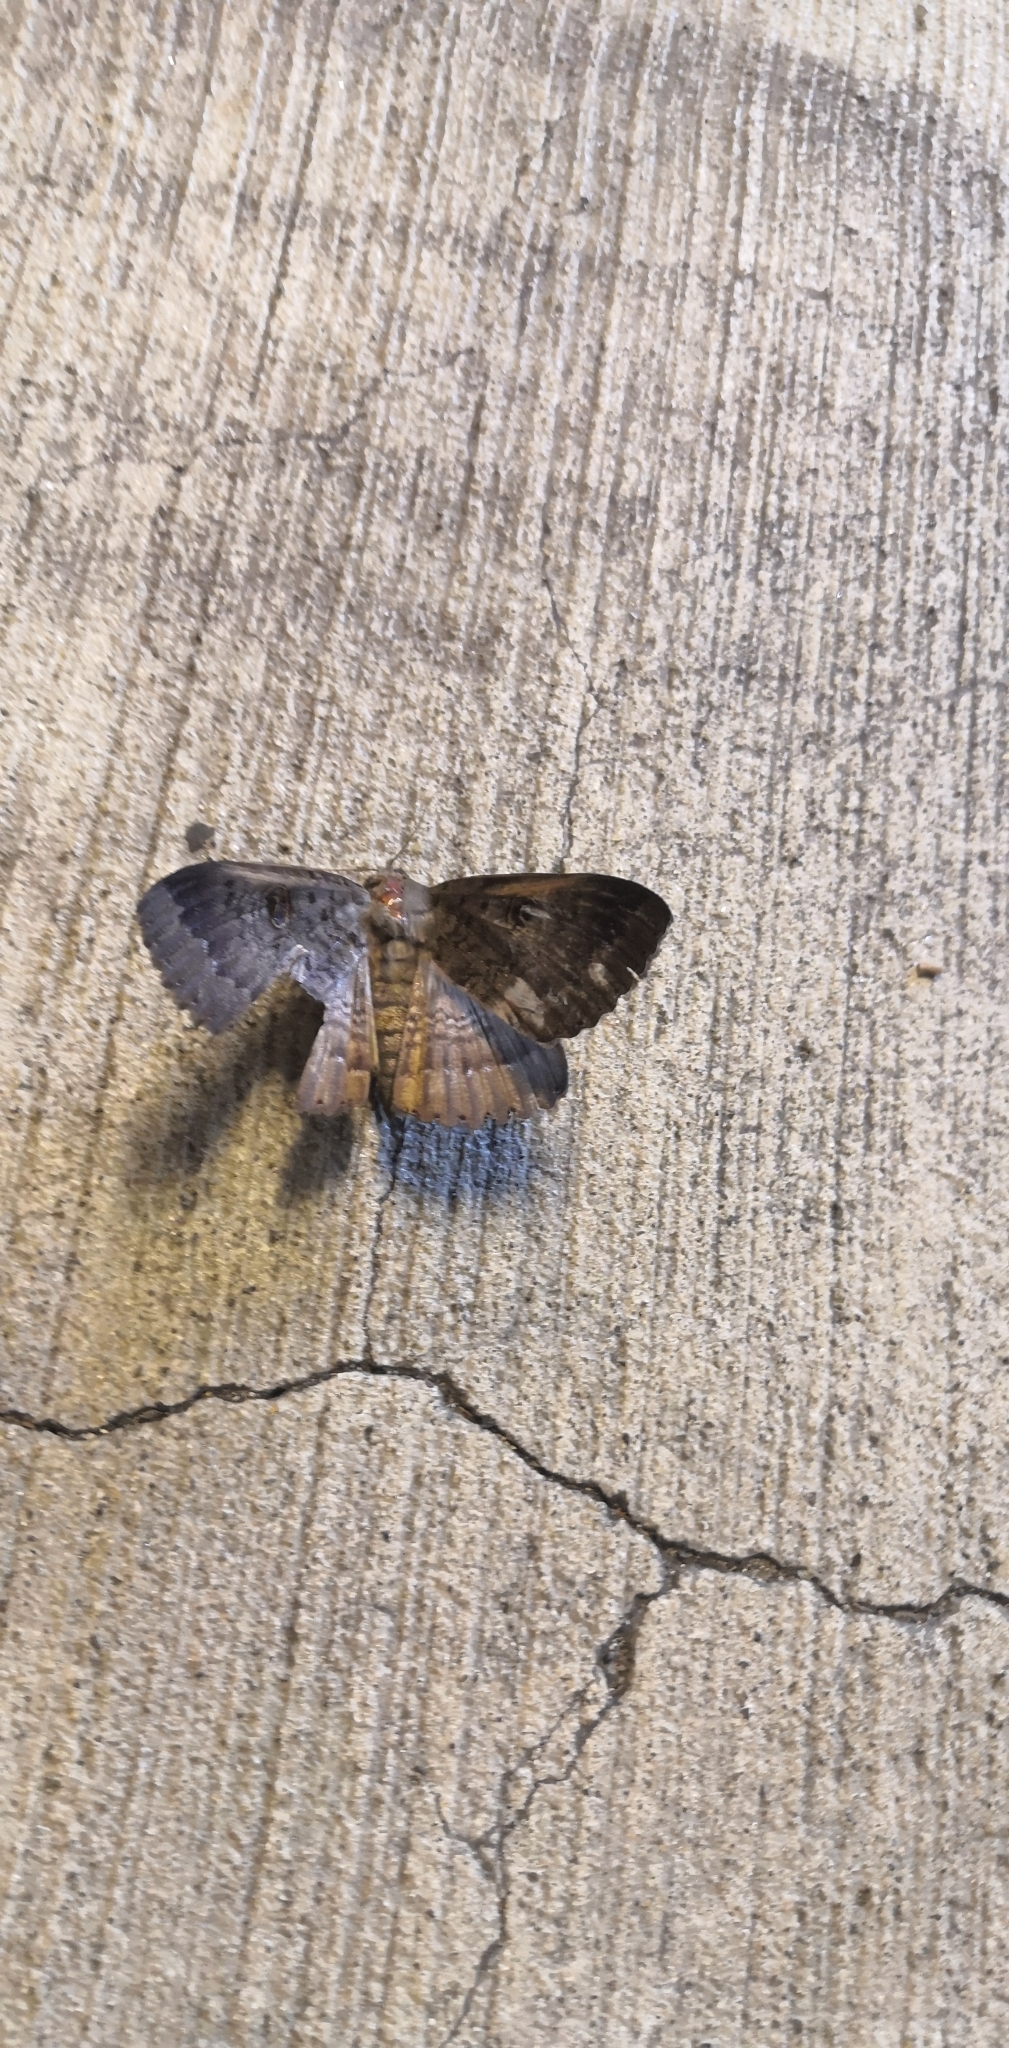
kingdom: Animalia
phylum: Arthropoda
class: Insecta
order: Lepidoptera
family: Erebidae
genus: Dasypodia
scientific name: Dasypodia cymatodes
